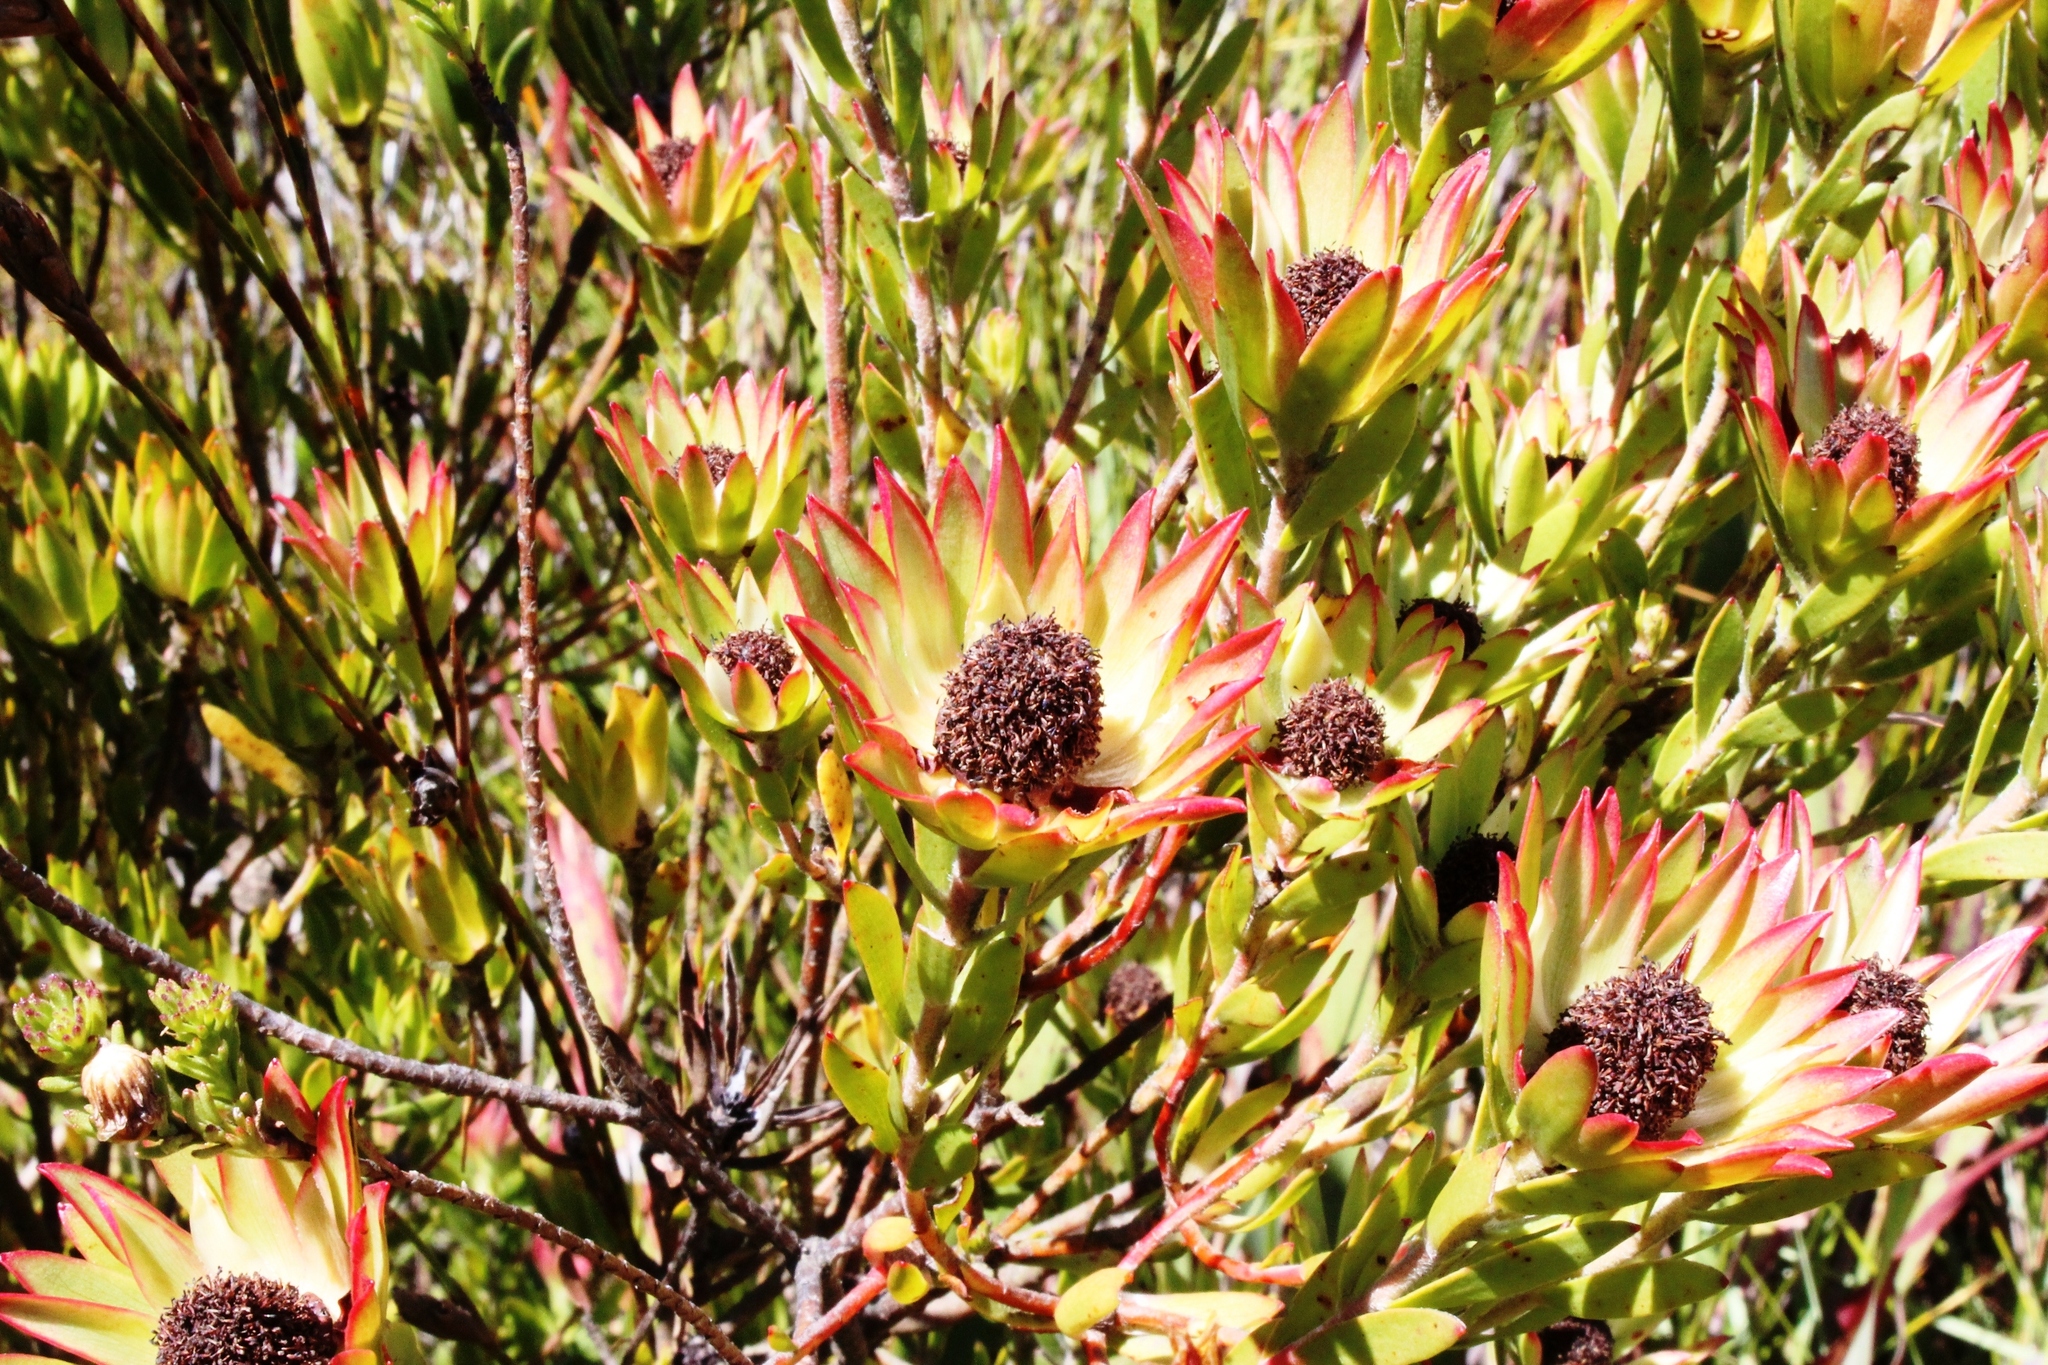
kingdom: Plantae
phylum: Tracheophyta
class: Magnoliopsida
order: Proteales
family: Proteaceae
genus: Leucadendron
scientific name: Leucadendron spissifolium
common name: Spear-leaf conebush
